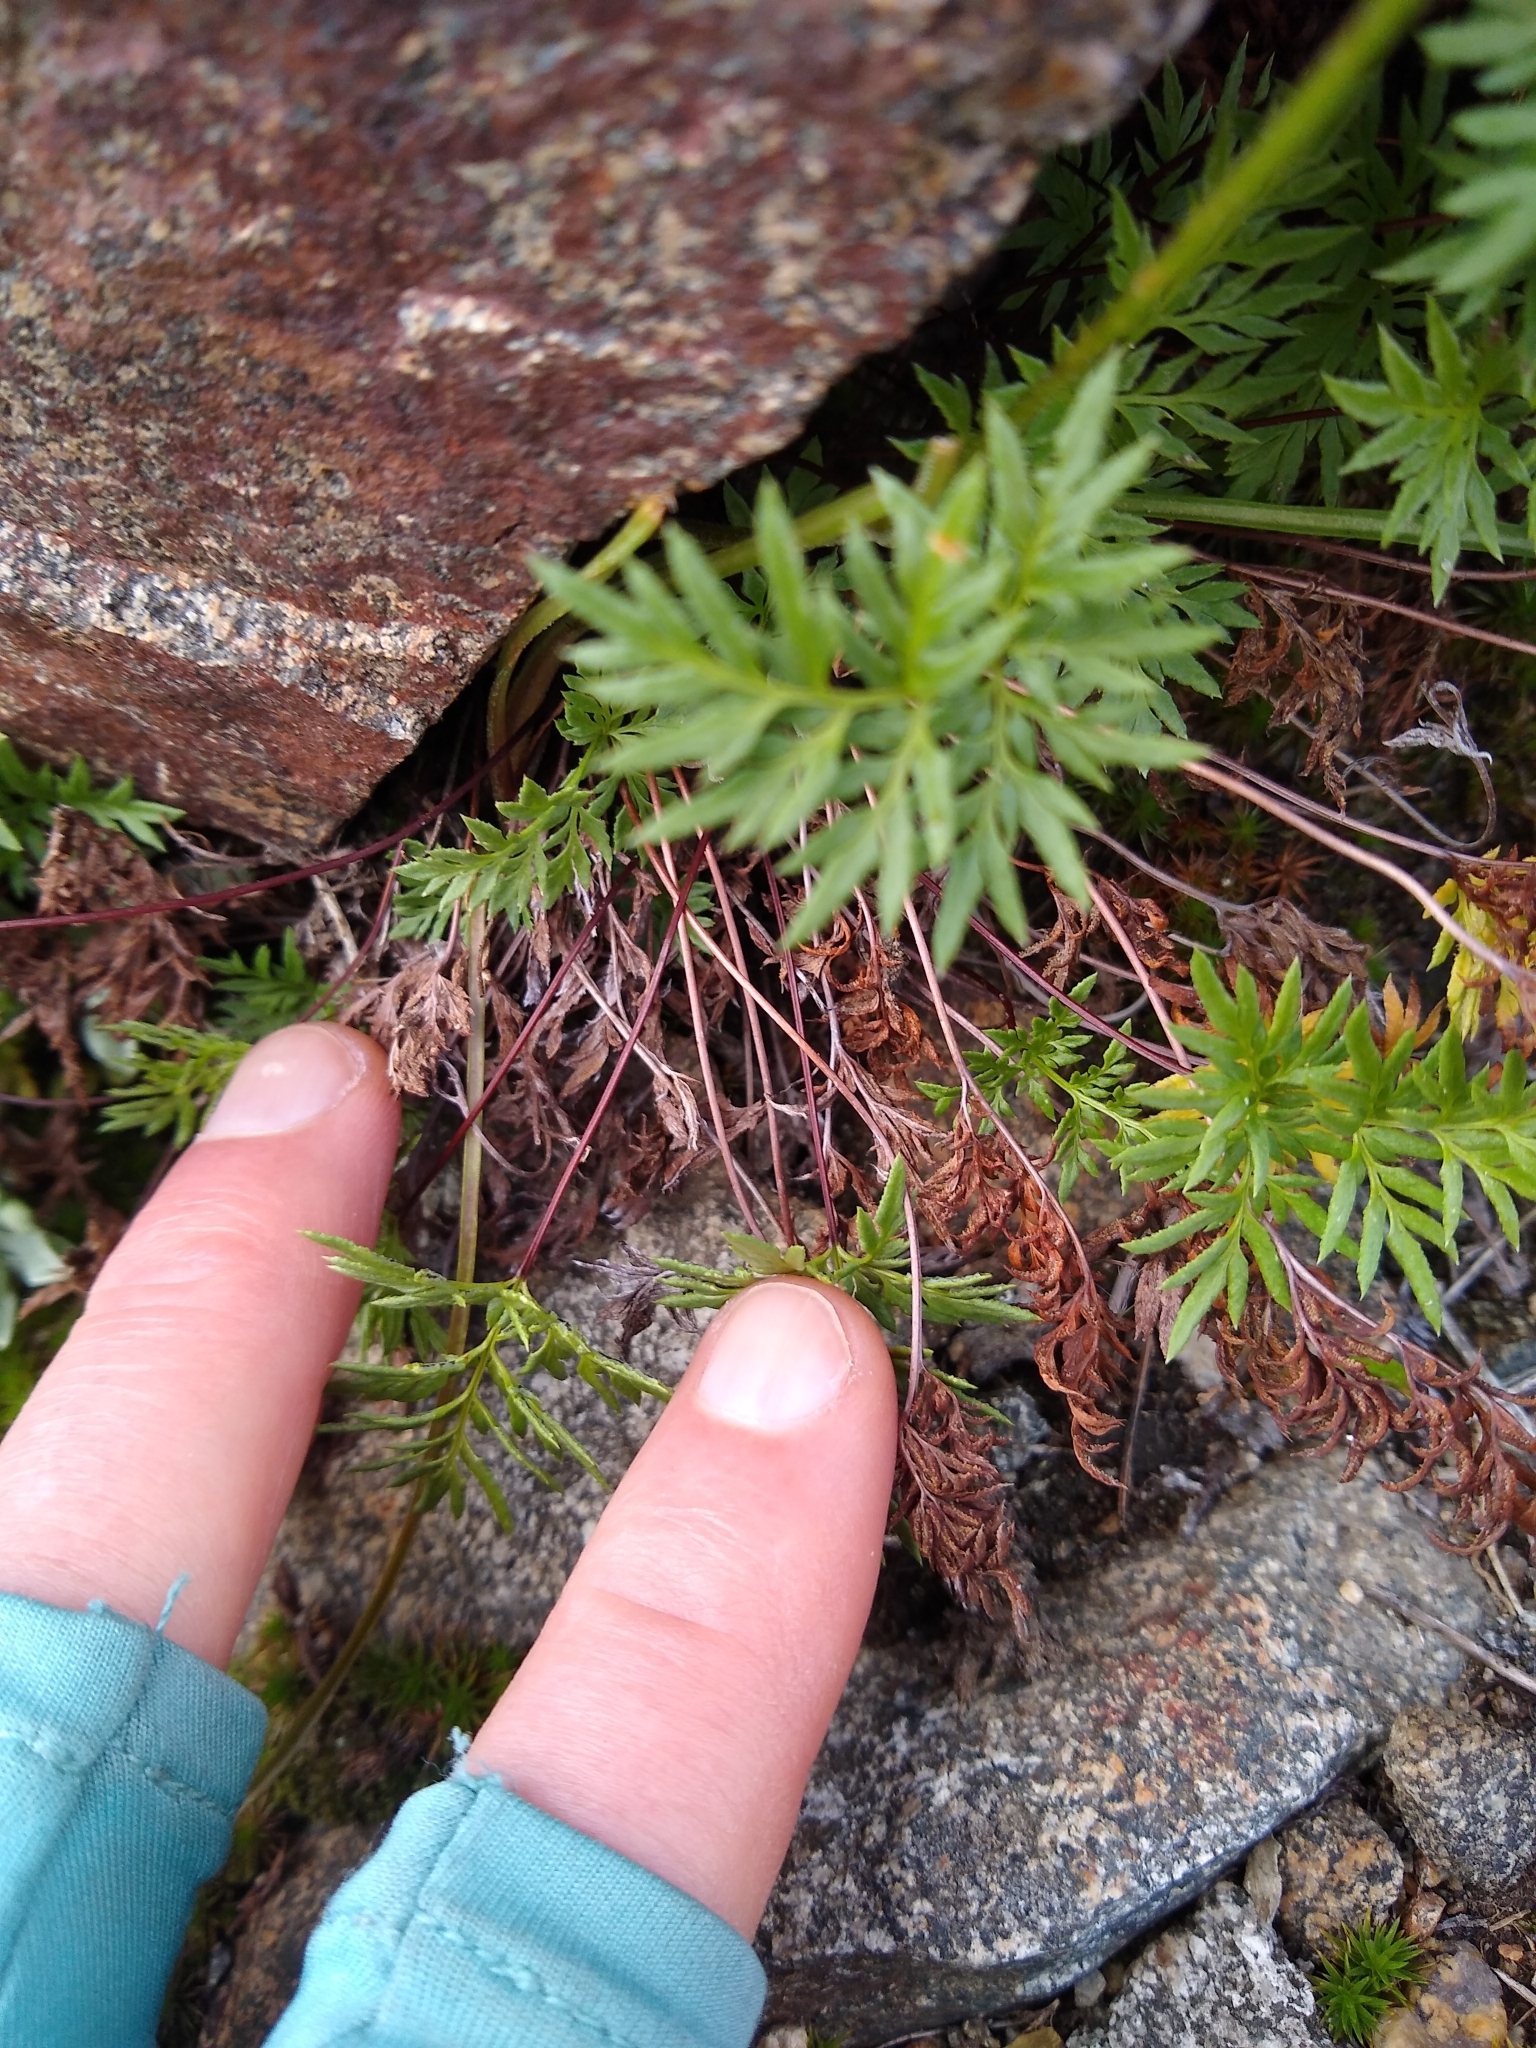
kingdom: Plantae
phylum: Tracheophyta
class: Polypodiopsida
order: Polypodiales
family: Pteridaceae
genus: Aspidotis
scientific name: Aspidotis densa
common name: Indian's dream
